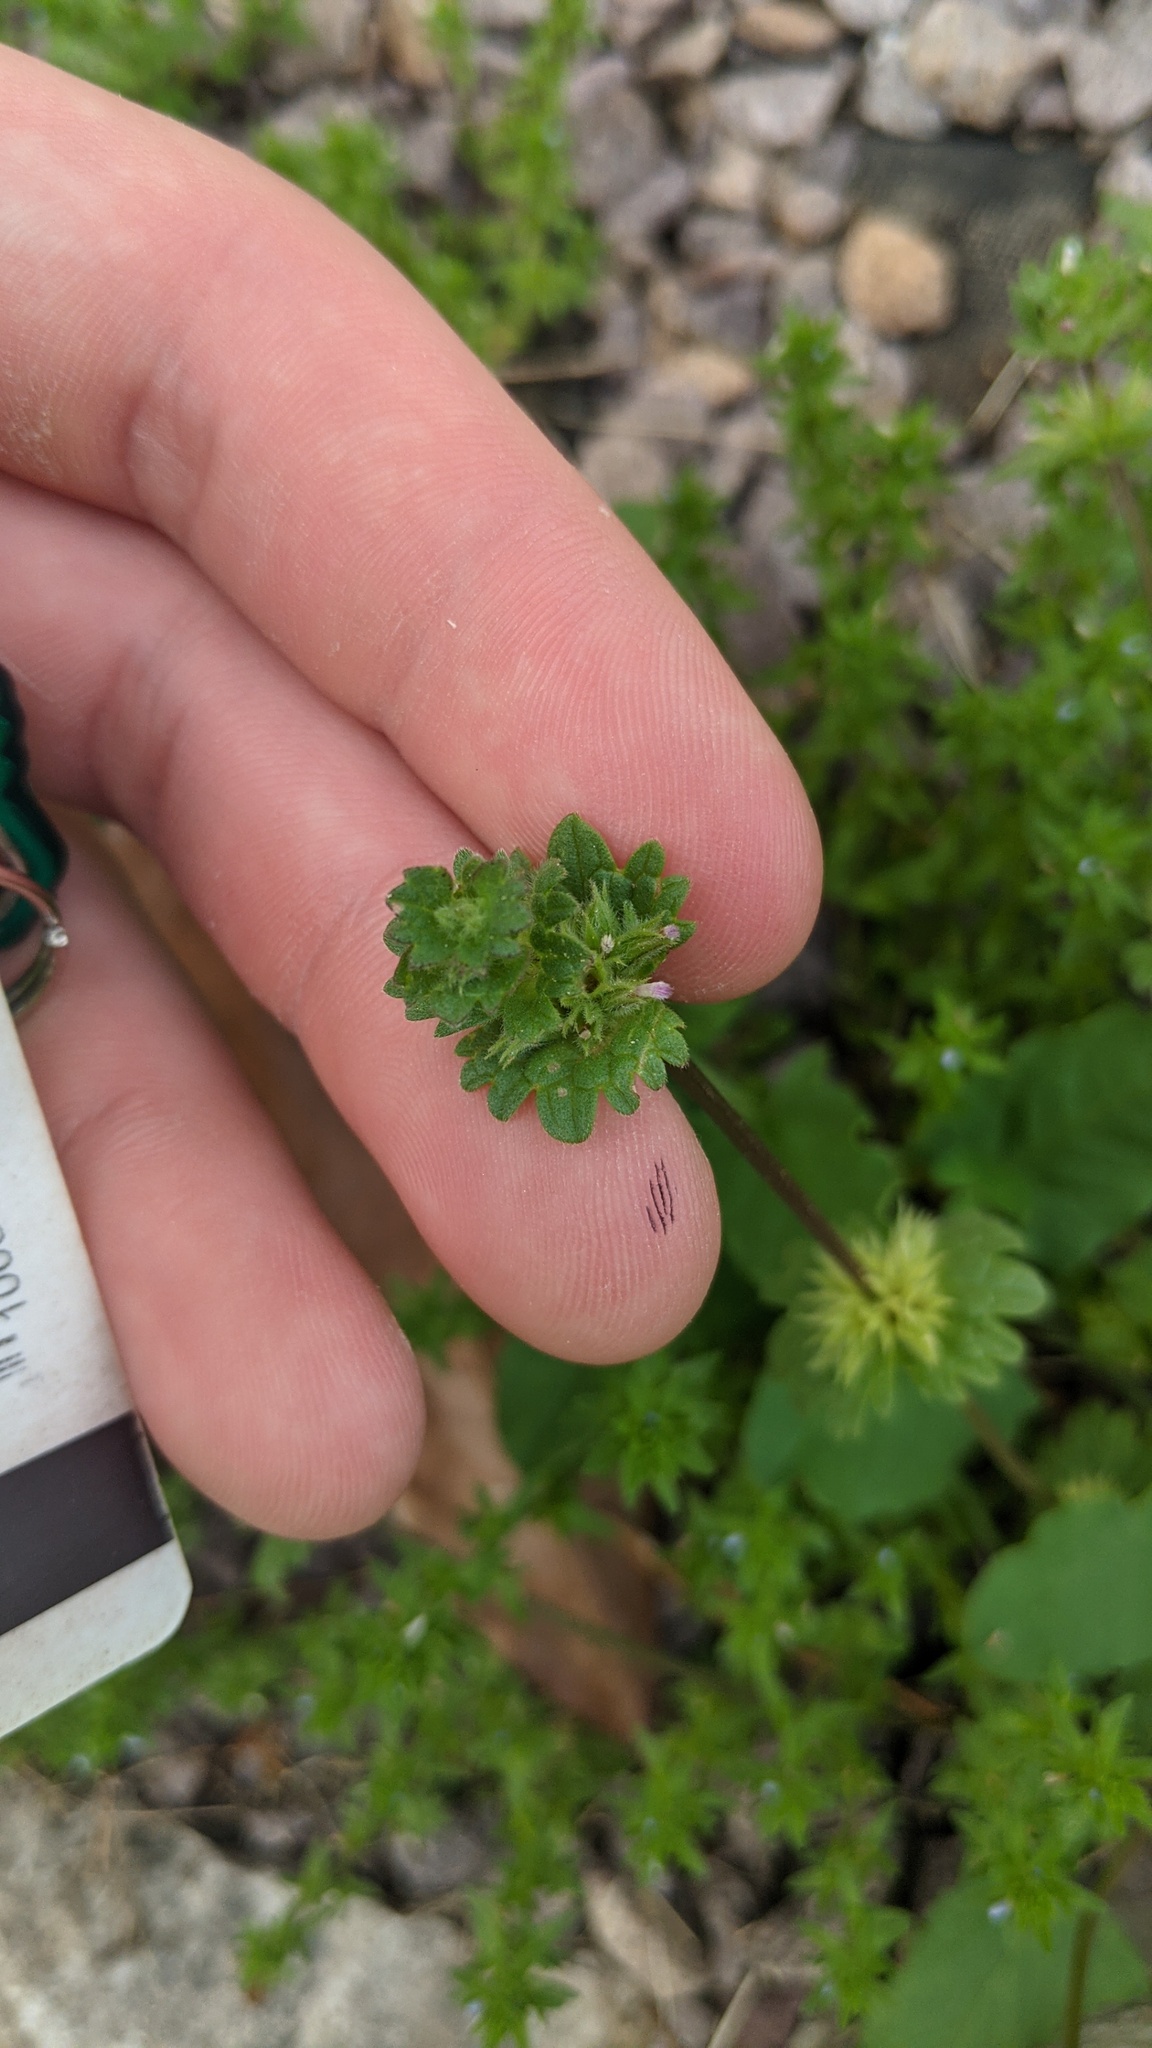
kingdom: Plantae
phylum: Tracheophyta
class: Magnoliopsida
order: Lamiales
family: Lamiaceae
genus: Lamium
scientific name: Lamium amplexicaule
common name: Henbit dead-nettle
